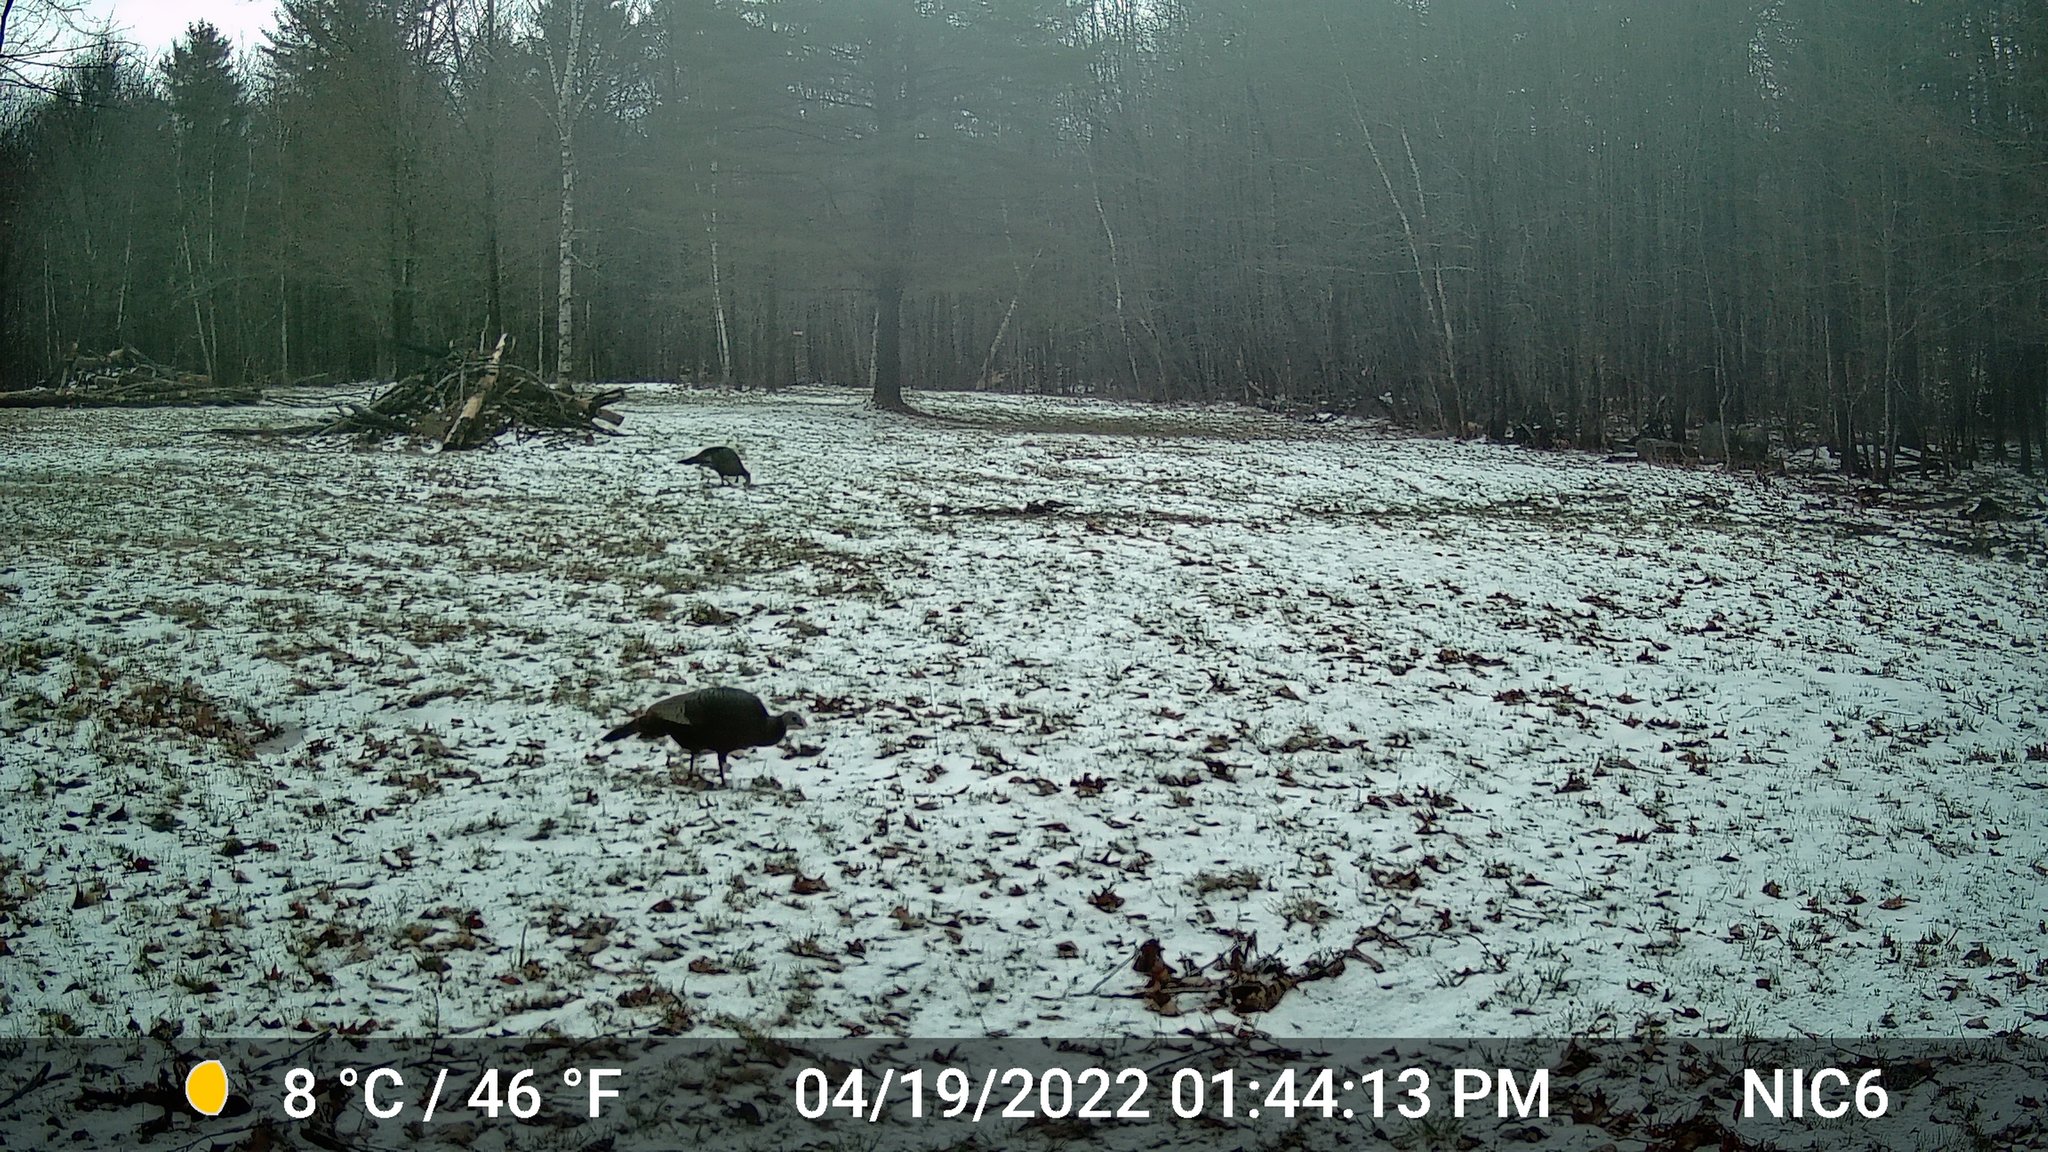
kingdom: Animalia
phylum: Chordata
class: Aves
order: Galliformes
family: Phasianidae
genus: Meleagris
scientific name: Meleagris gallopavo
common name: Wild turkey
